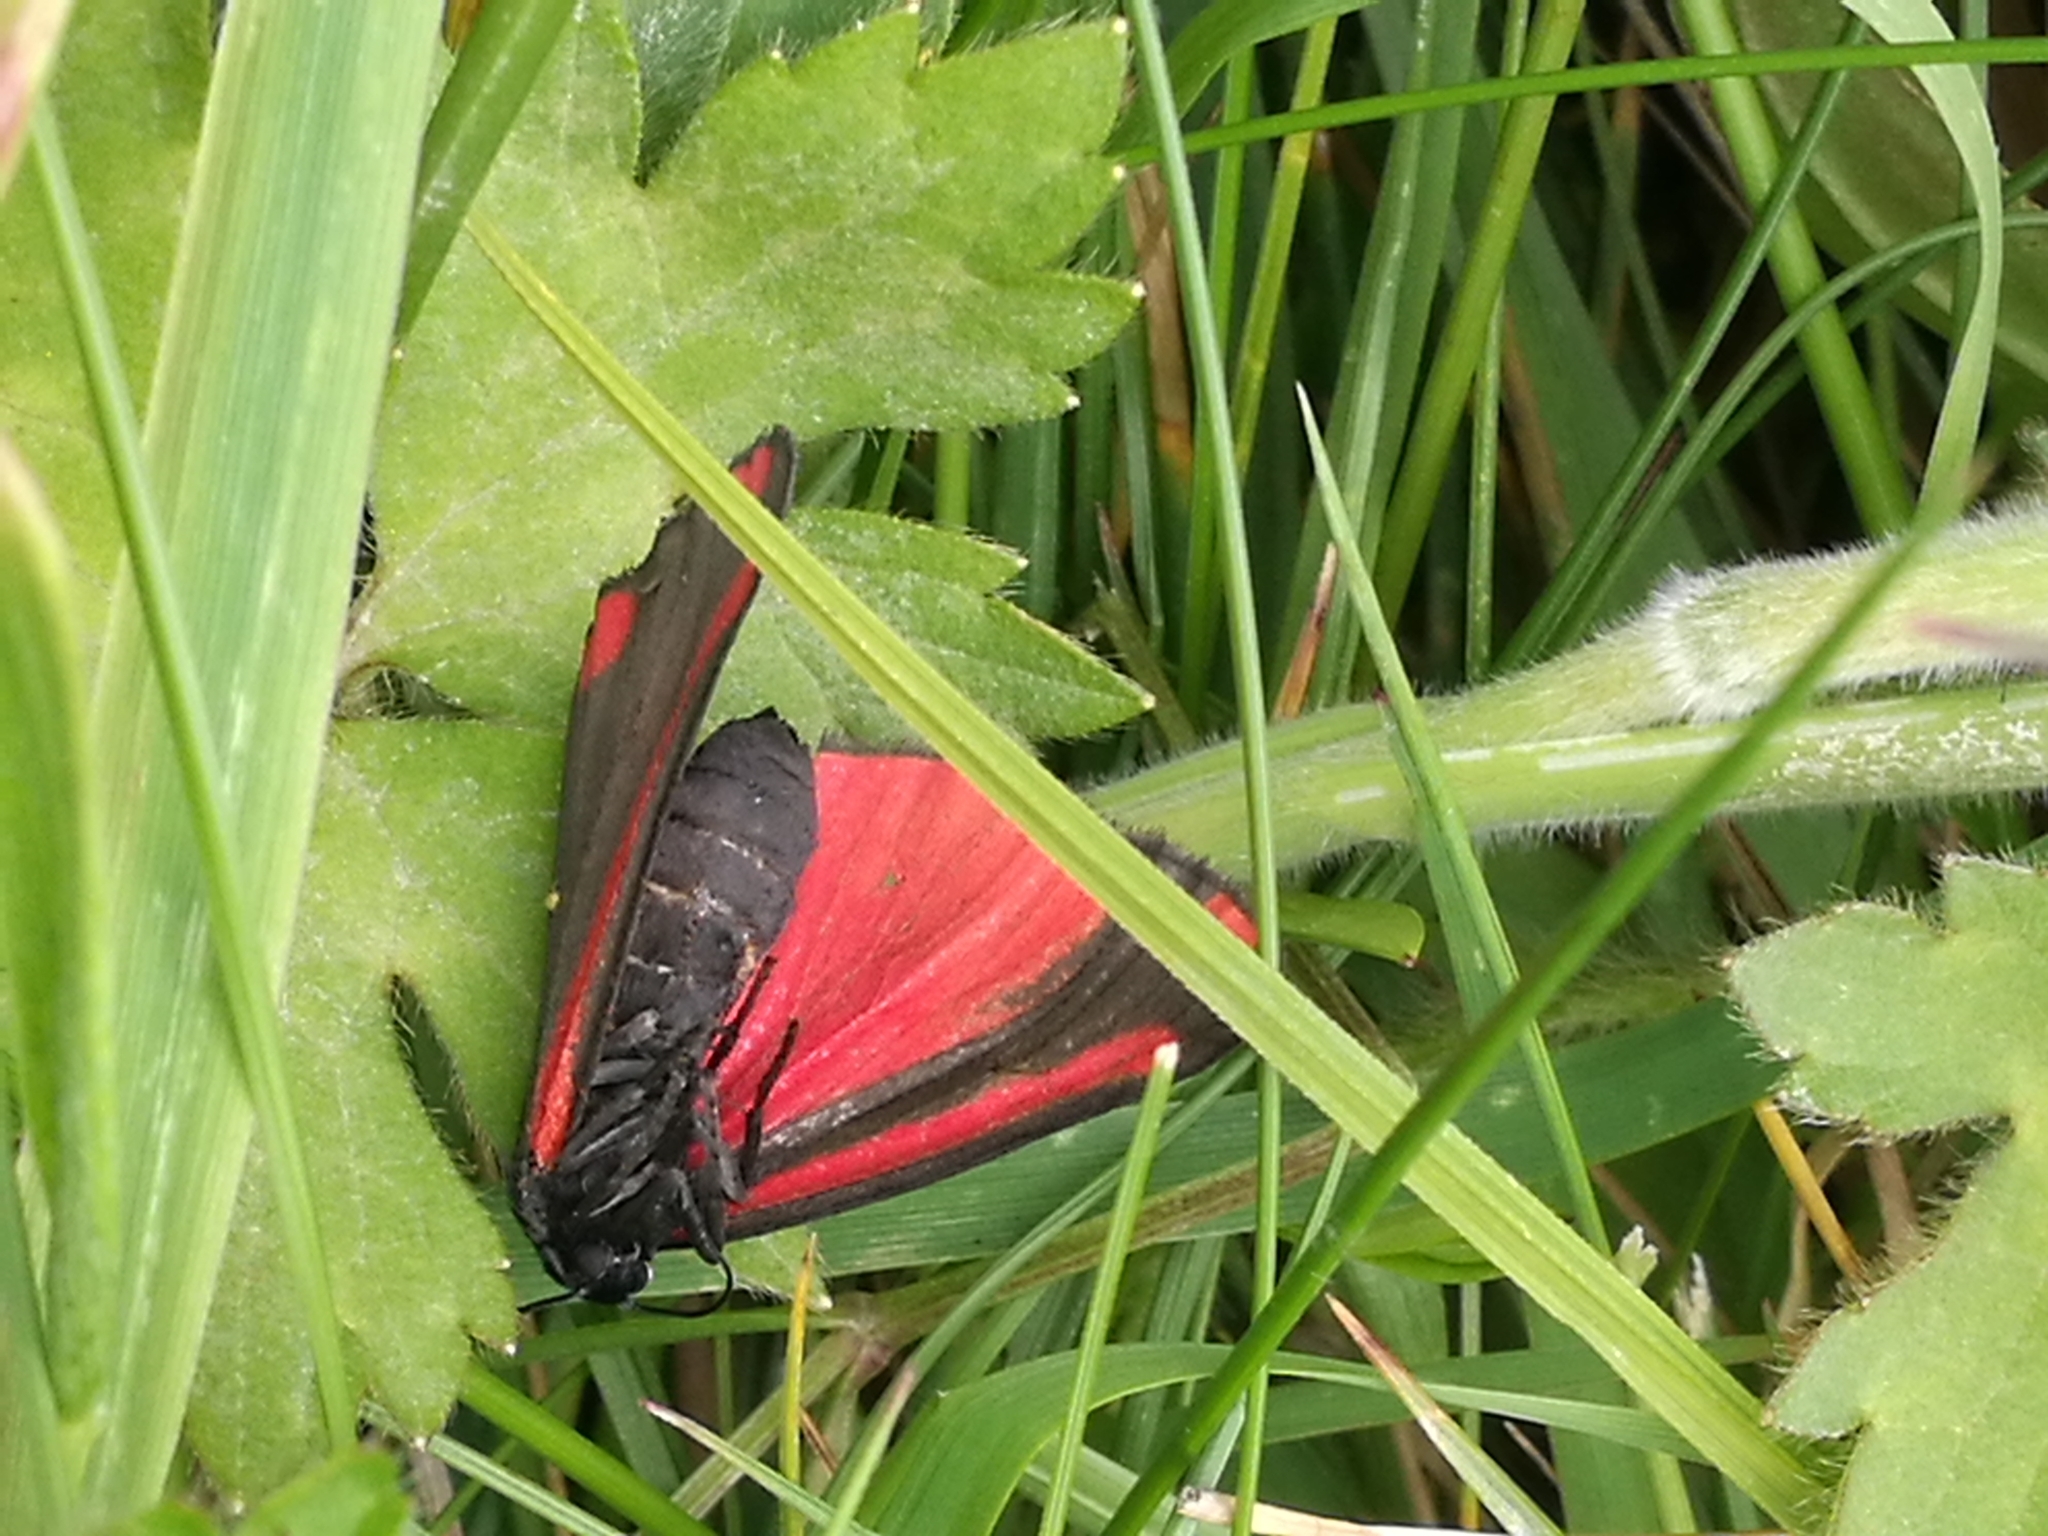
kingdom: Animalia
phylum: Arthropoda
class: Insecta
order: Lepidoptera
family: Erebidae
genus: Tyria
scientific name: Tyria jacobaeae
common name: Cinnabar
